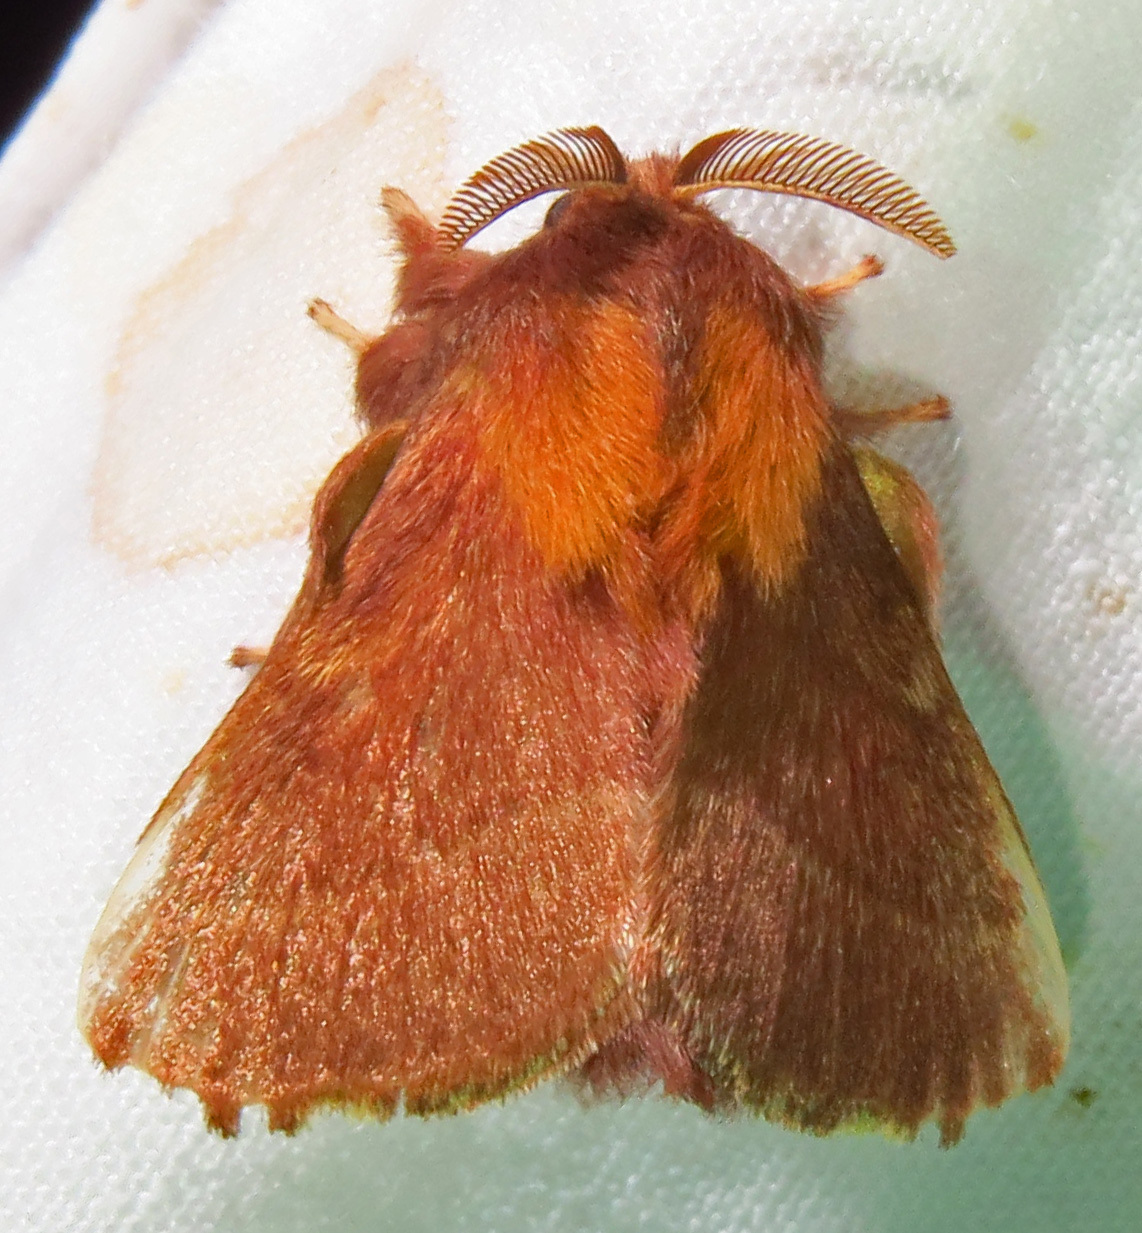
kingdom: Animalia
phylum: Arthropoda
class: Insecta
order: Lepidoptera
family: Lasiocampidae
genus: Malacosoma
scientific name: Malacosoma americana
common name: Eastern tent caterpillar moth
